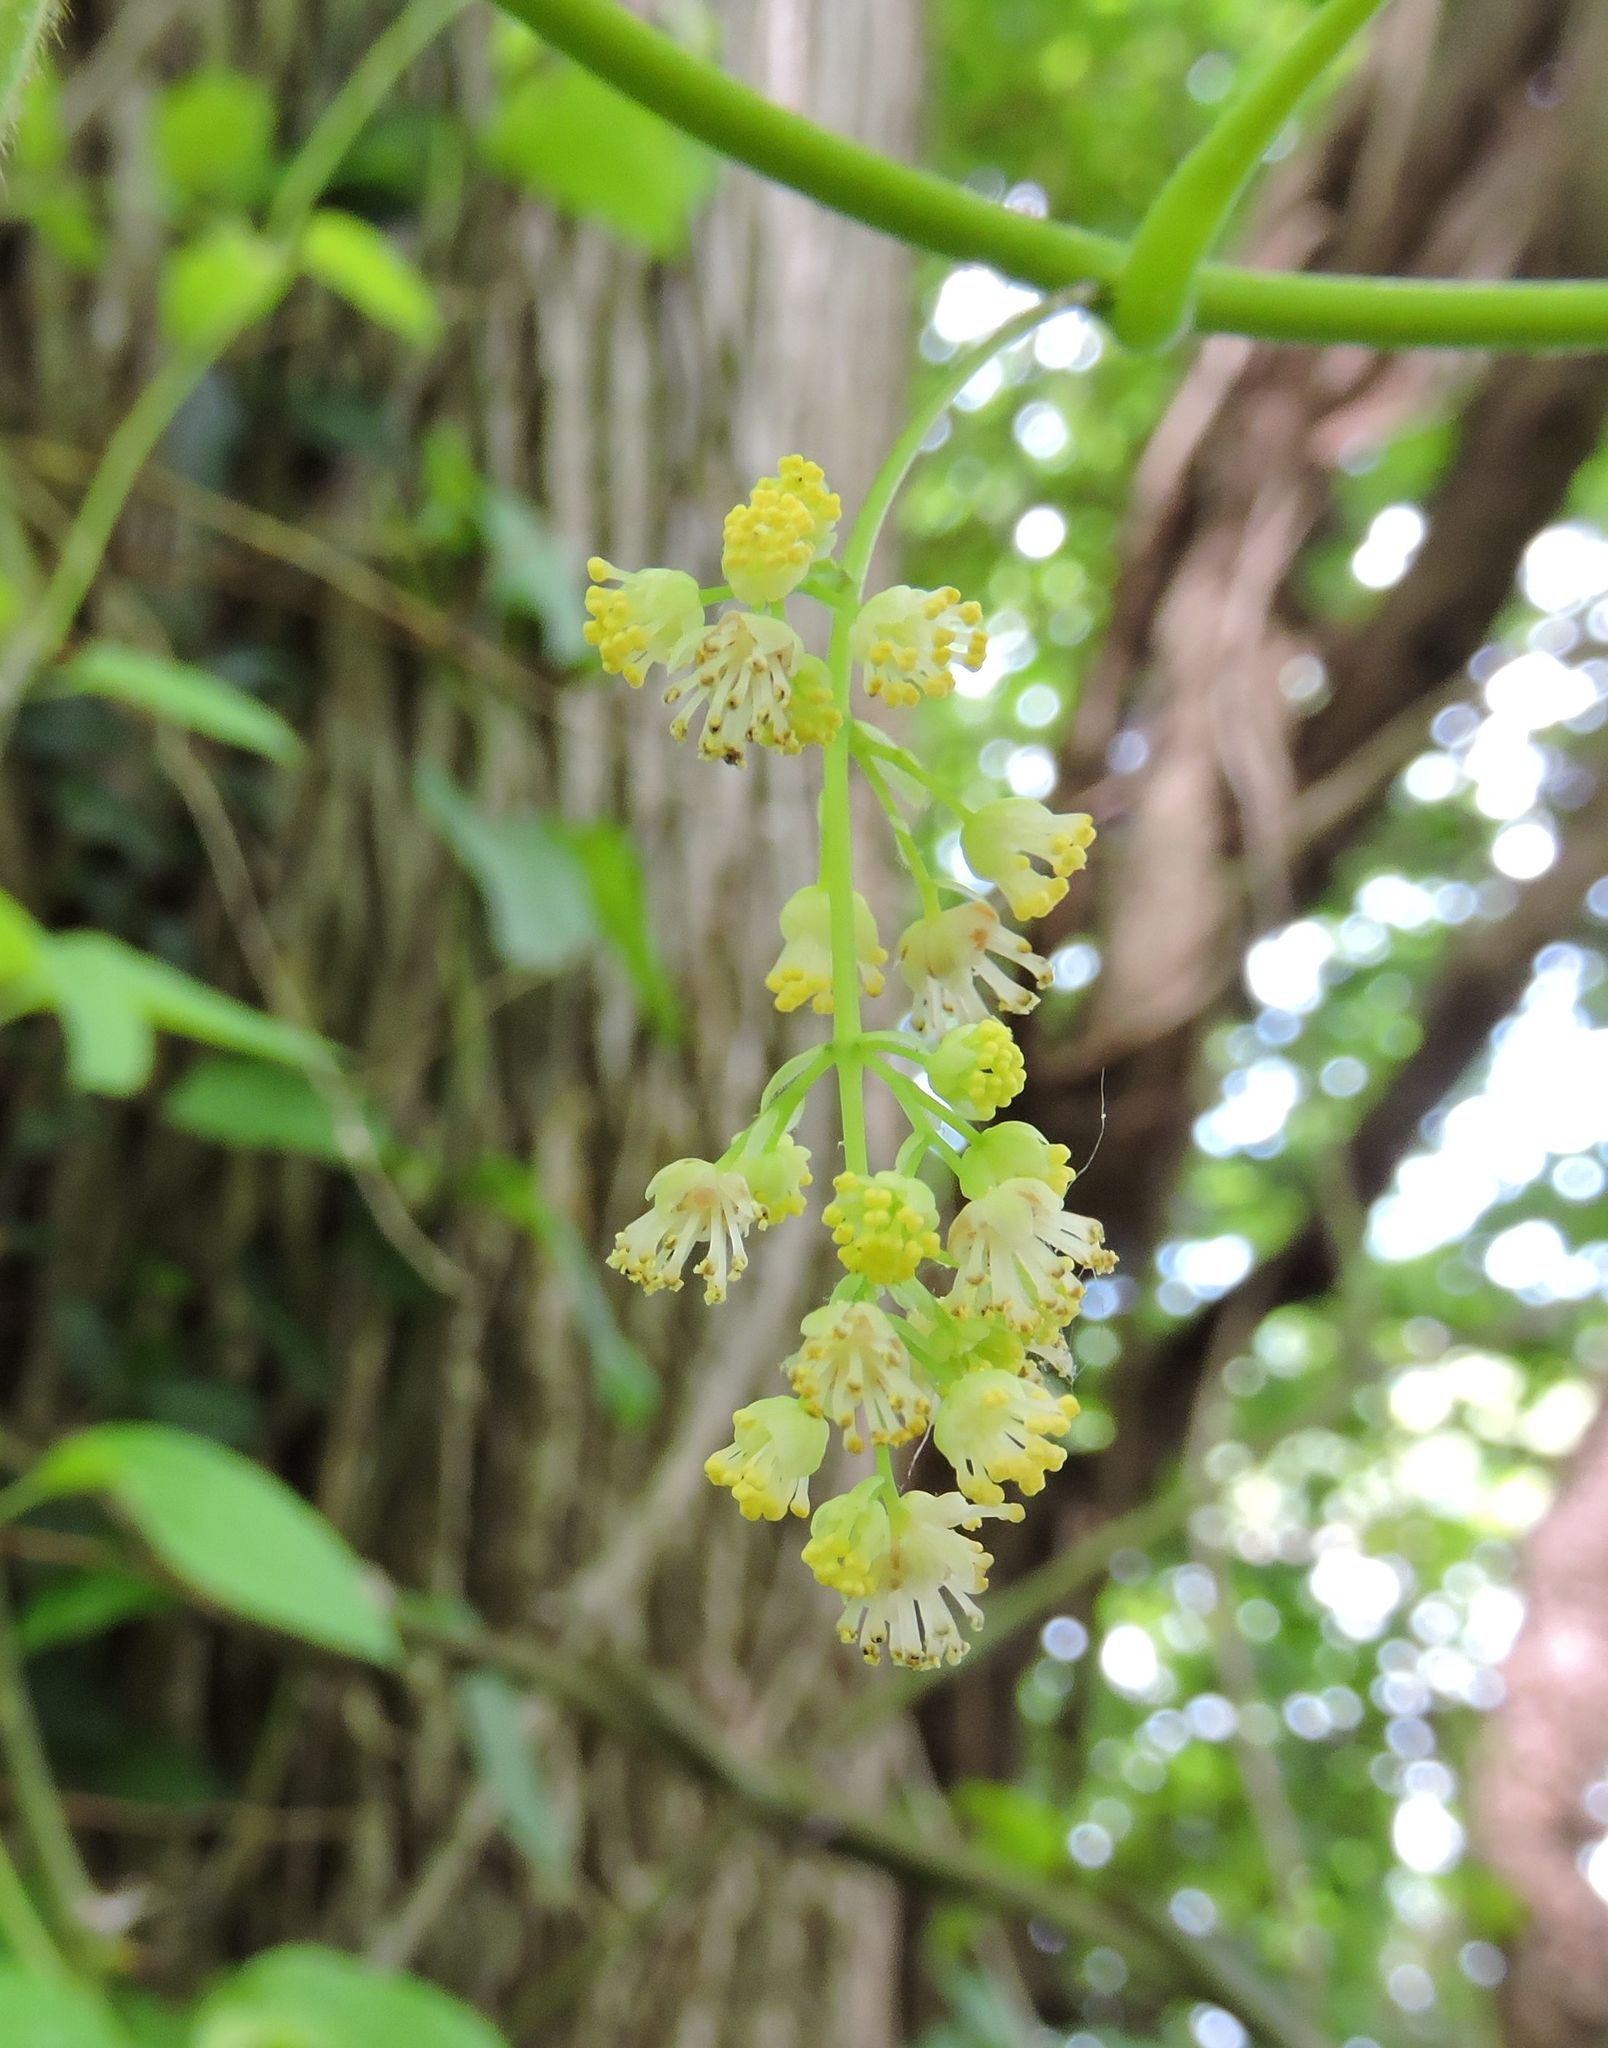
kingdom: Plantae
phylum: Tracheophyta
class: Magnoliopsida
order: Cucurbitales
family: Cucurbitaceae
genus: Sicyos
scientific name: Sicyos angulatus
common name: Angled burr cucumber
